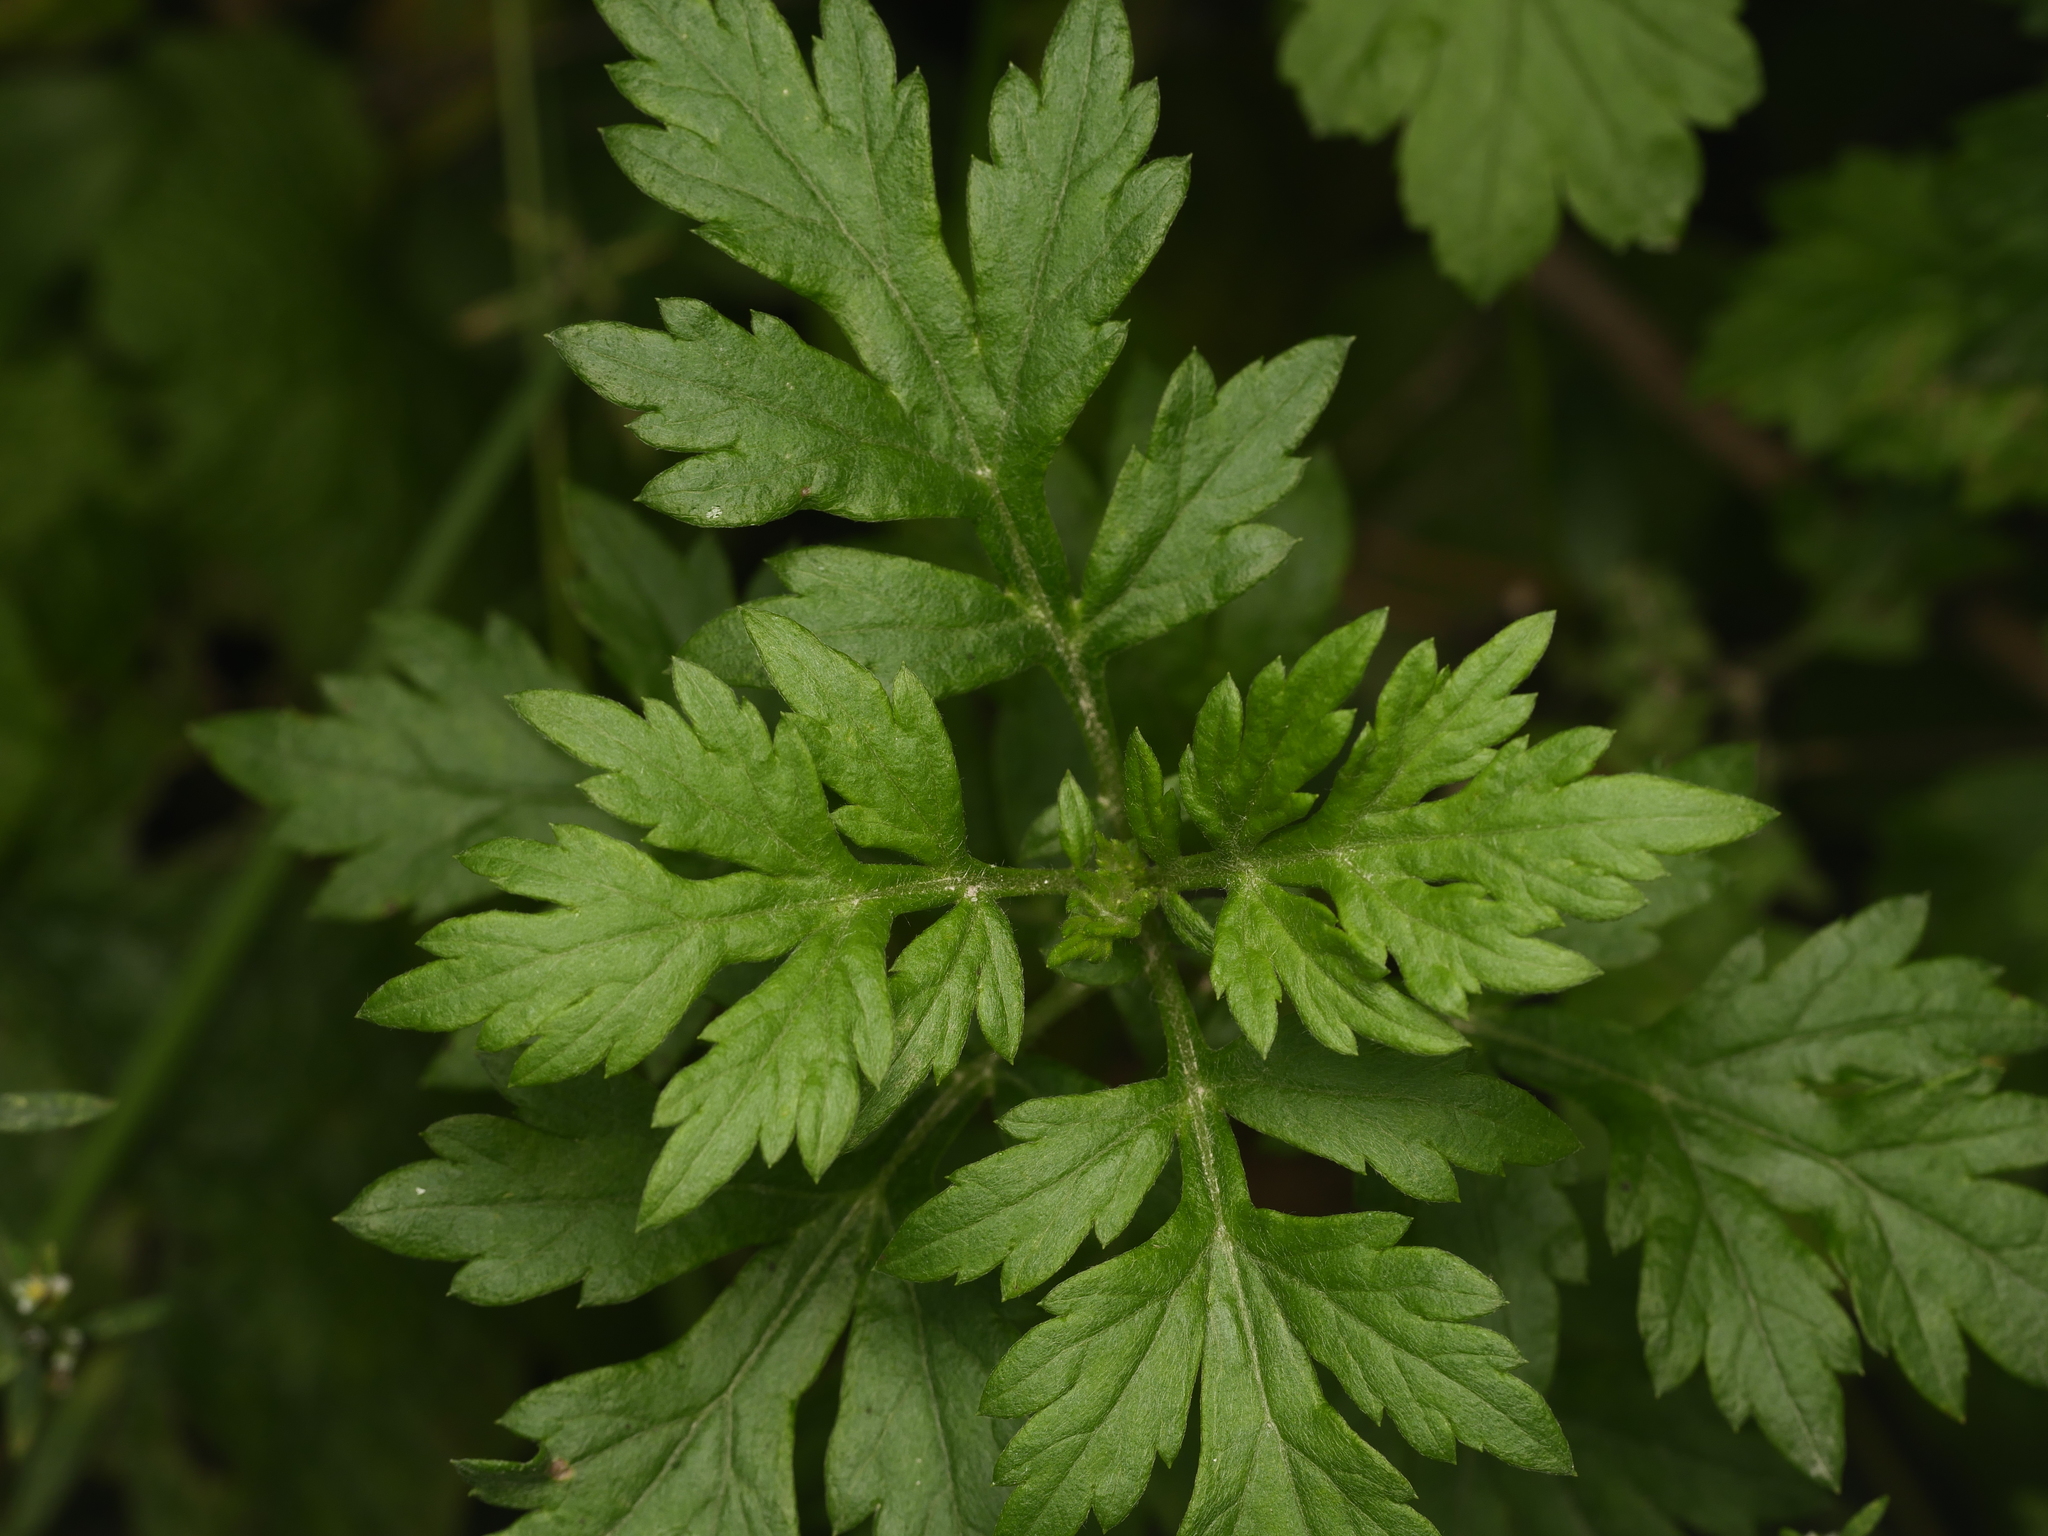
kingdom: Plantae
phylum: Tracheophyta
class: Magnoliopsida
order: Asterales
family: Asteraceae
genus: Artemisia
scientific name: Artemisia vulgaris
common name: Mugwort
